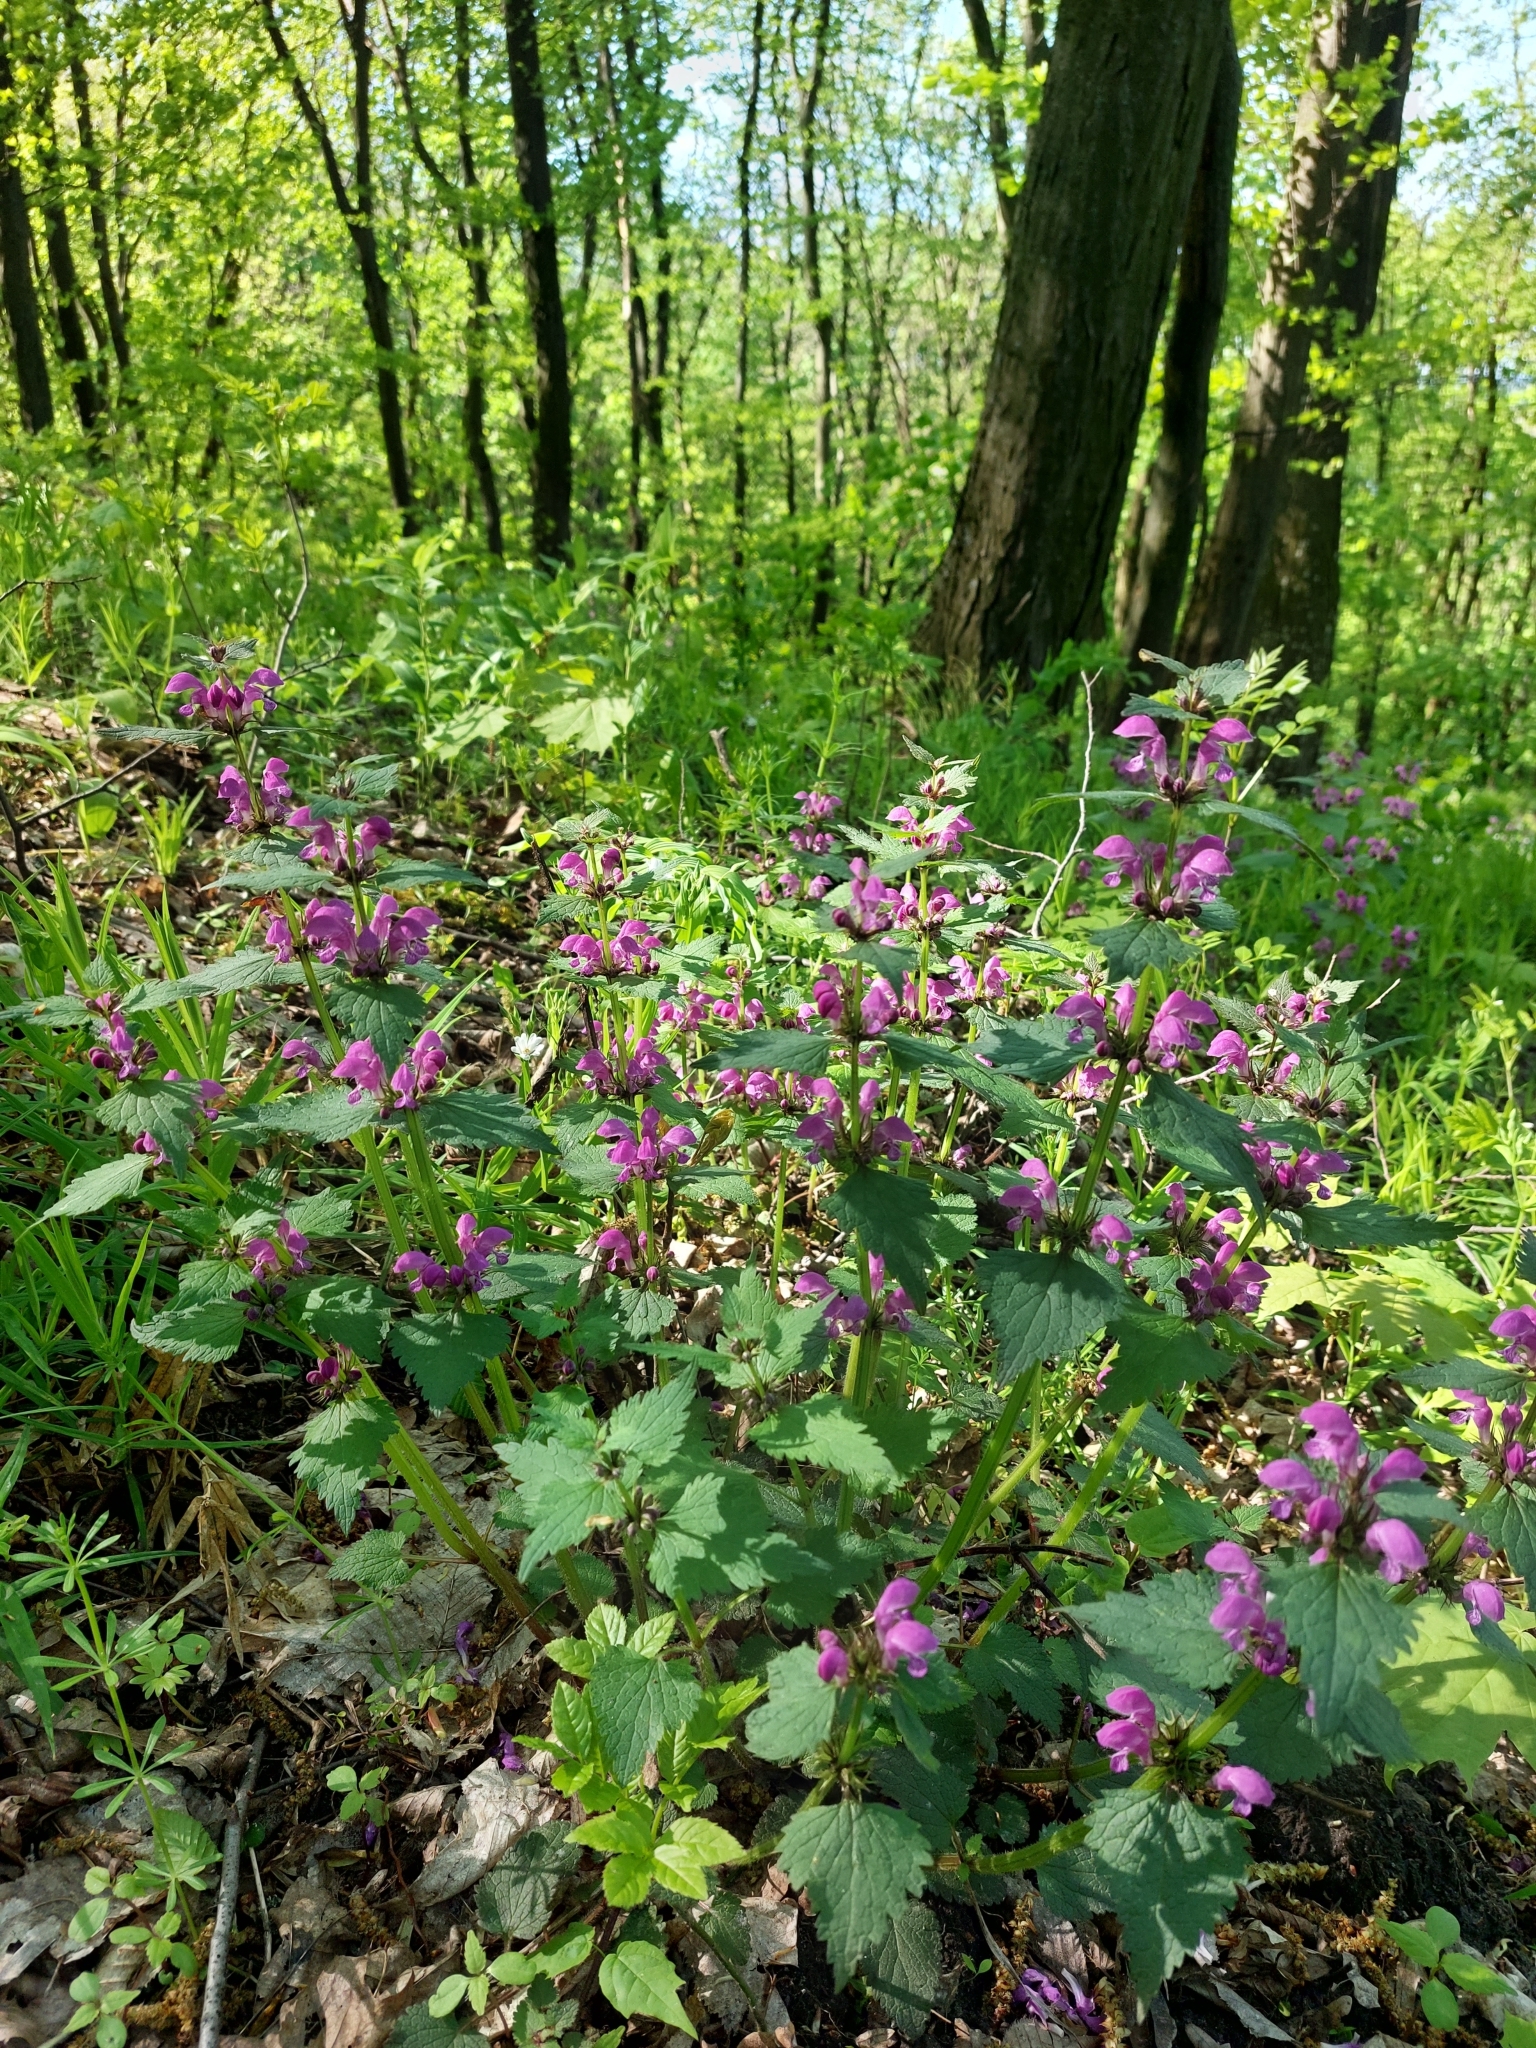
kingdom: Plantae
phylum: Tracheophyta
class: Magnoliopsida
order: Lamiales
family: Lamiaceae
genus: Lamium
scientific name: Lamium maculatum
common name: Spotted dead-nettle
